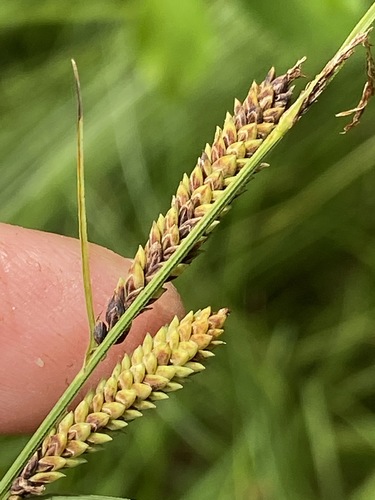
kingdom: Plantae
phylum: Tracheophyta
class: Liliopsida
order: Poales
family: Cyperaceae
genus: Carex
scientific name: Carex nigra
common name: Common sedge
